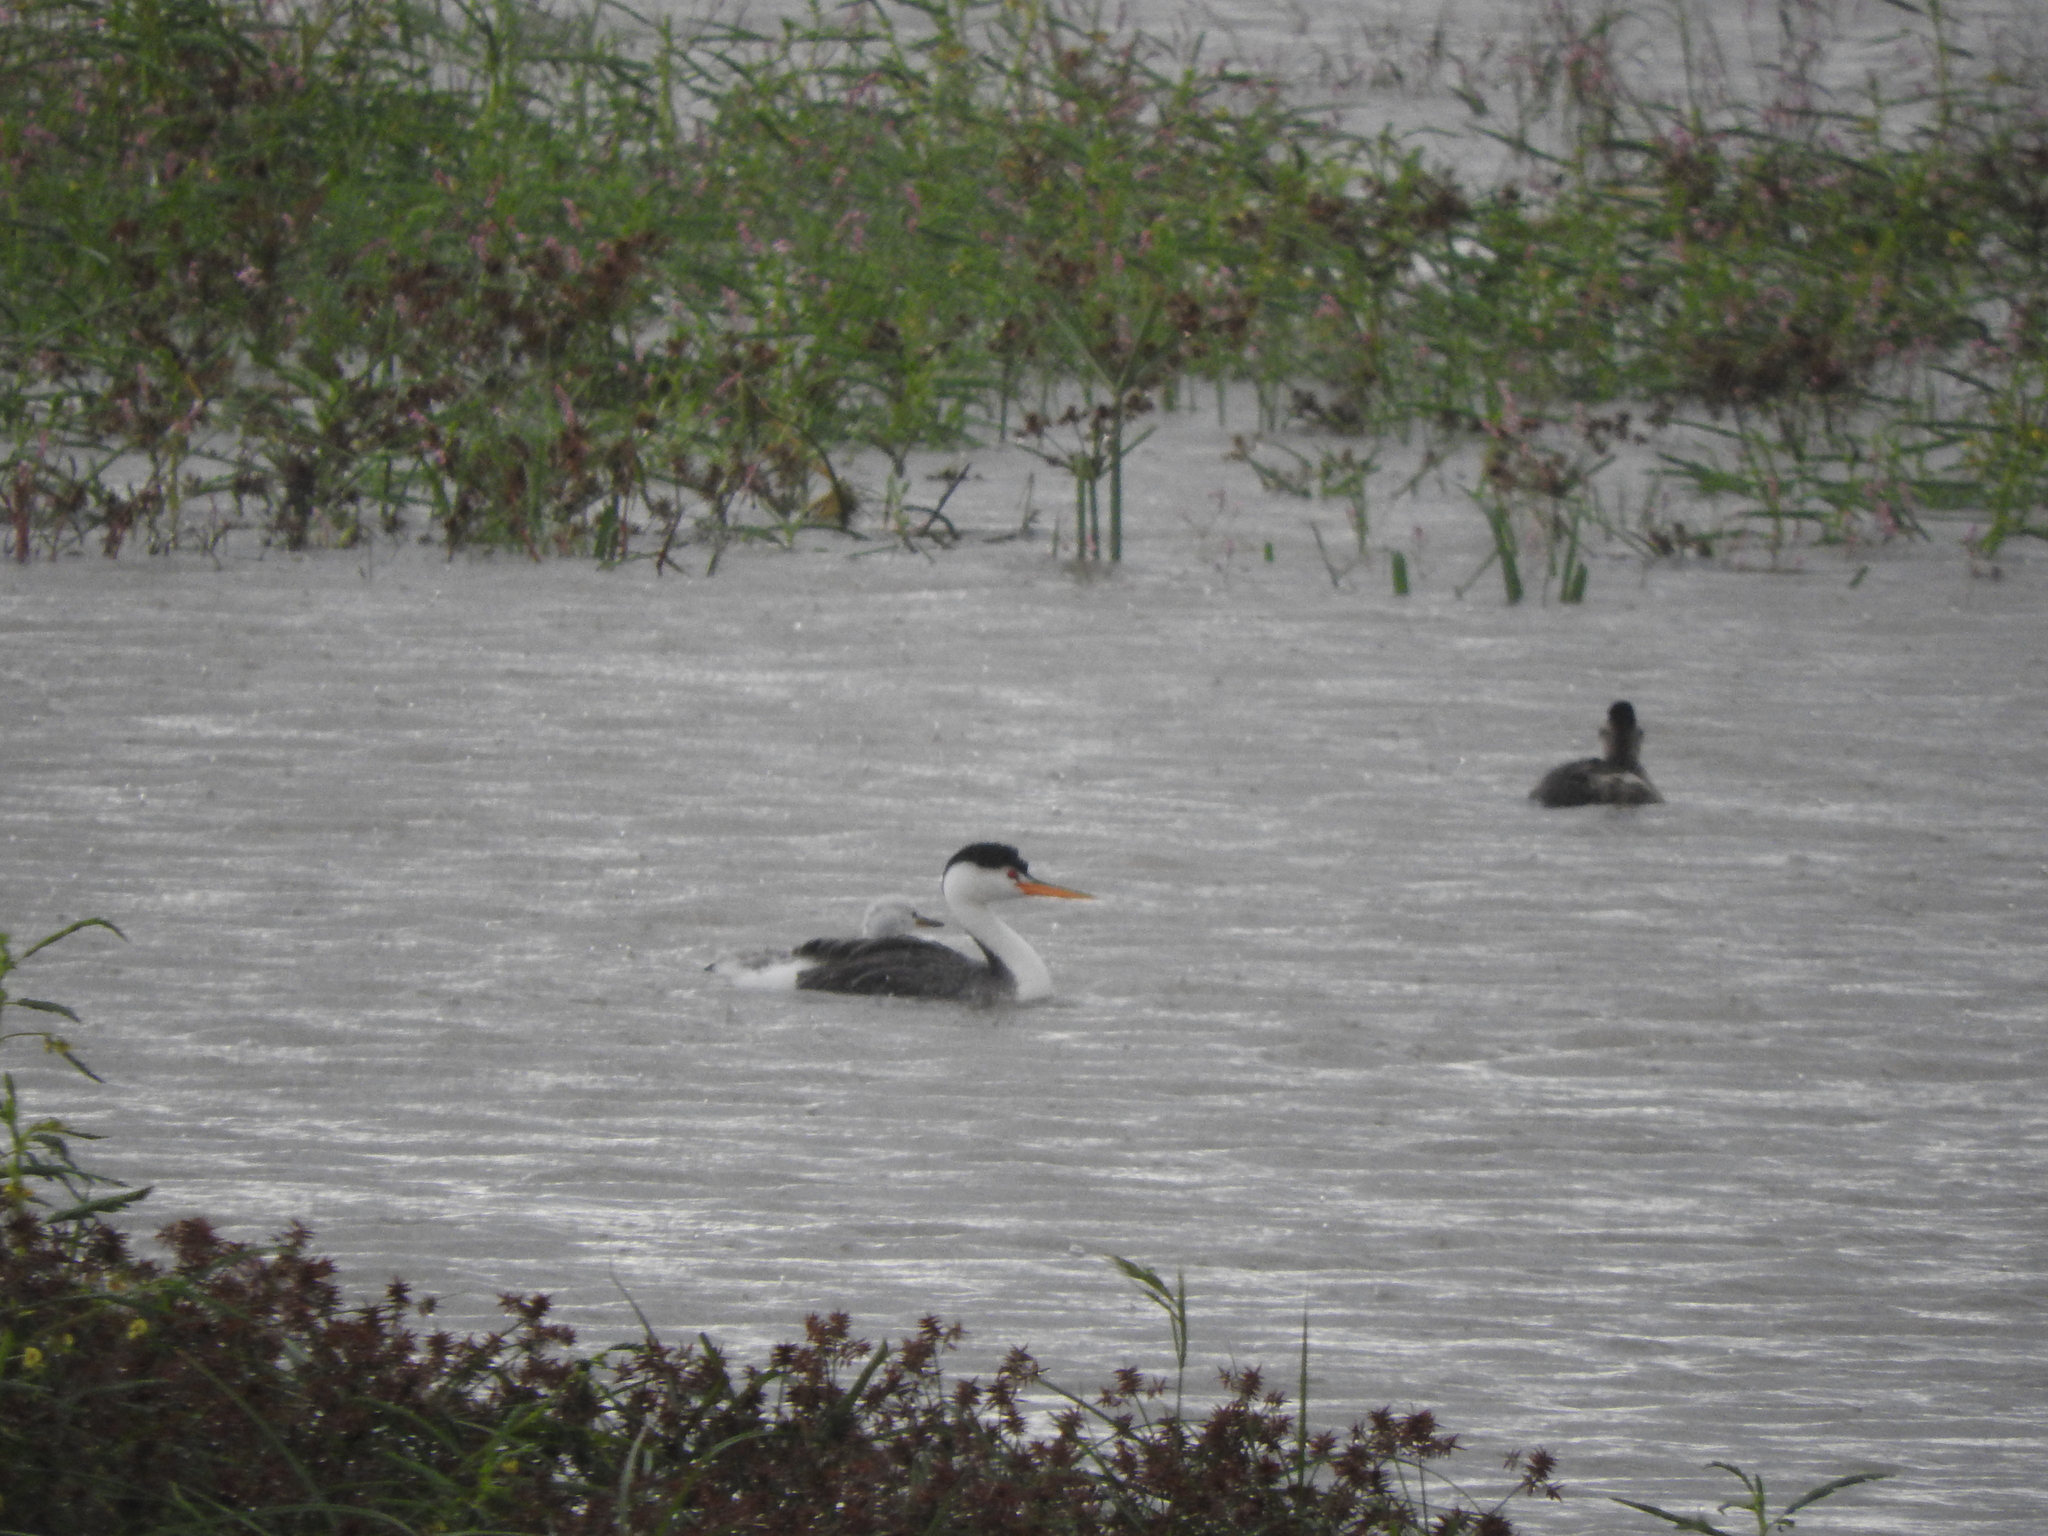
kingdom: Animalia
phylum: Chordata
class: Aves
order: Podicipediformes
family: Podicipedidae
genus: Aechmophorus
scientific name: Aechmophorus clarkii
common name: Clark's grebe
